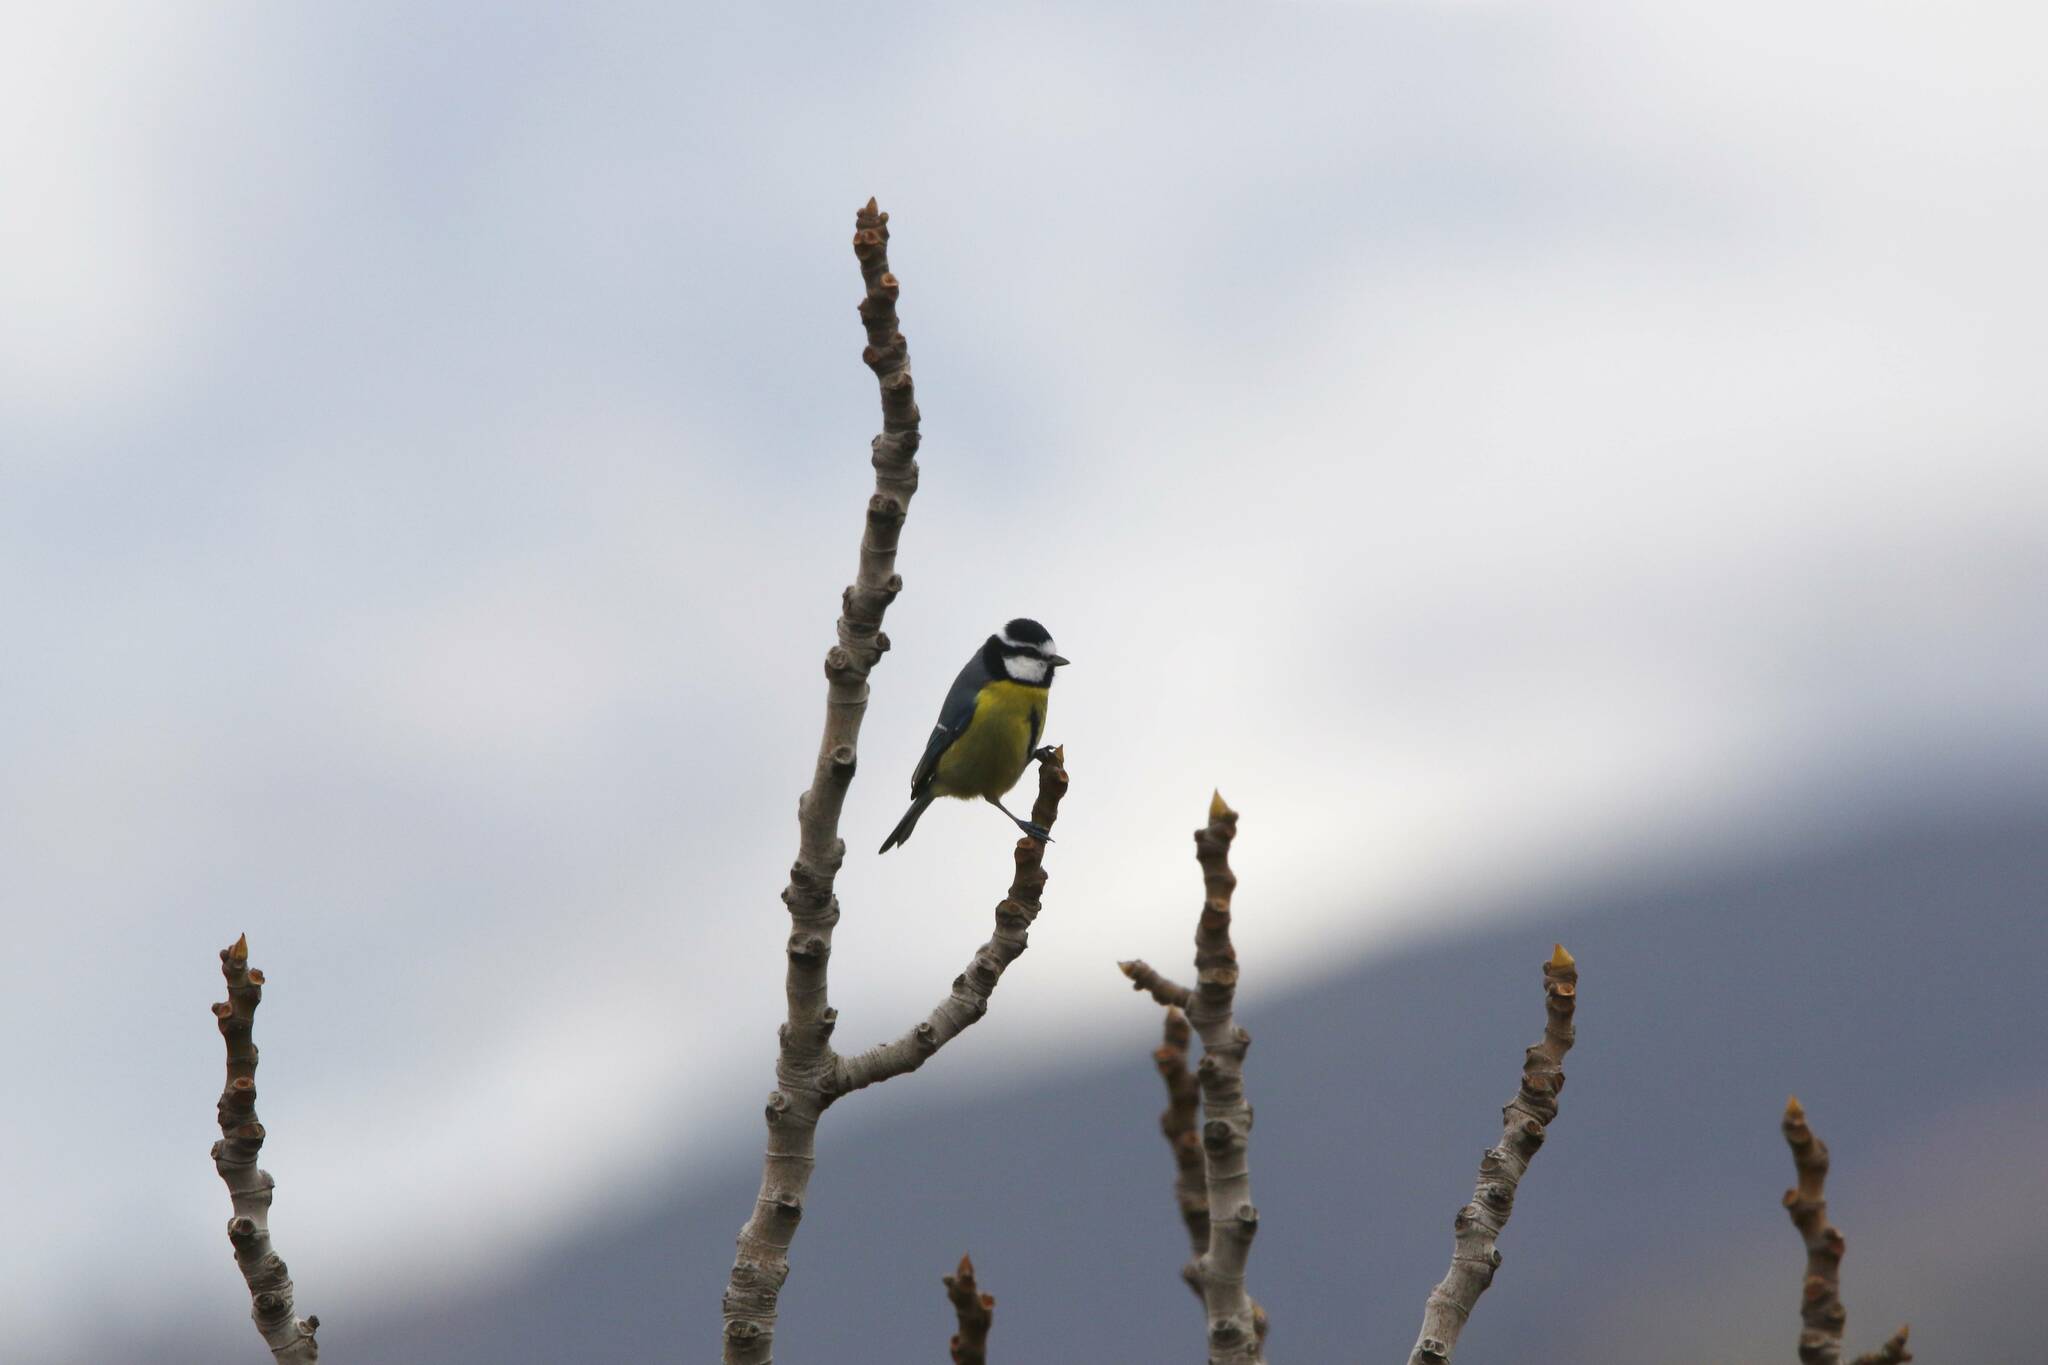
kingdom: Animalia
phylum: Chordata
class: Aves
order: Passeriformes
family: Paridae
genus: Cyanistes
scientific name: Cyanistes teneriffae
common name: African blue tit
